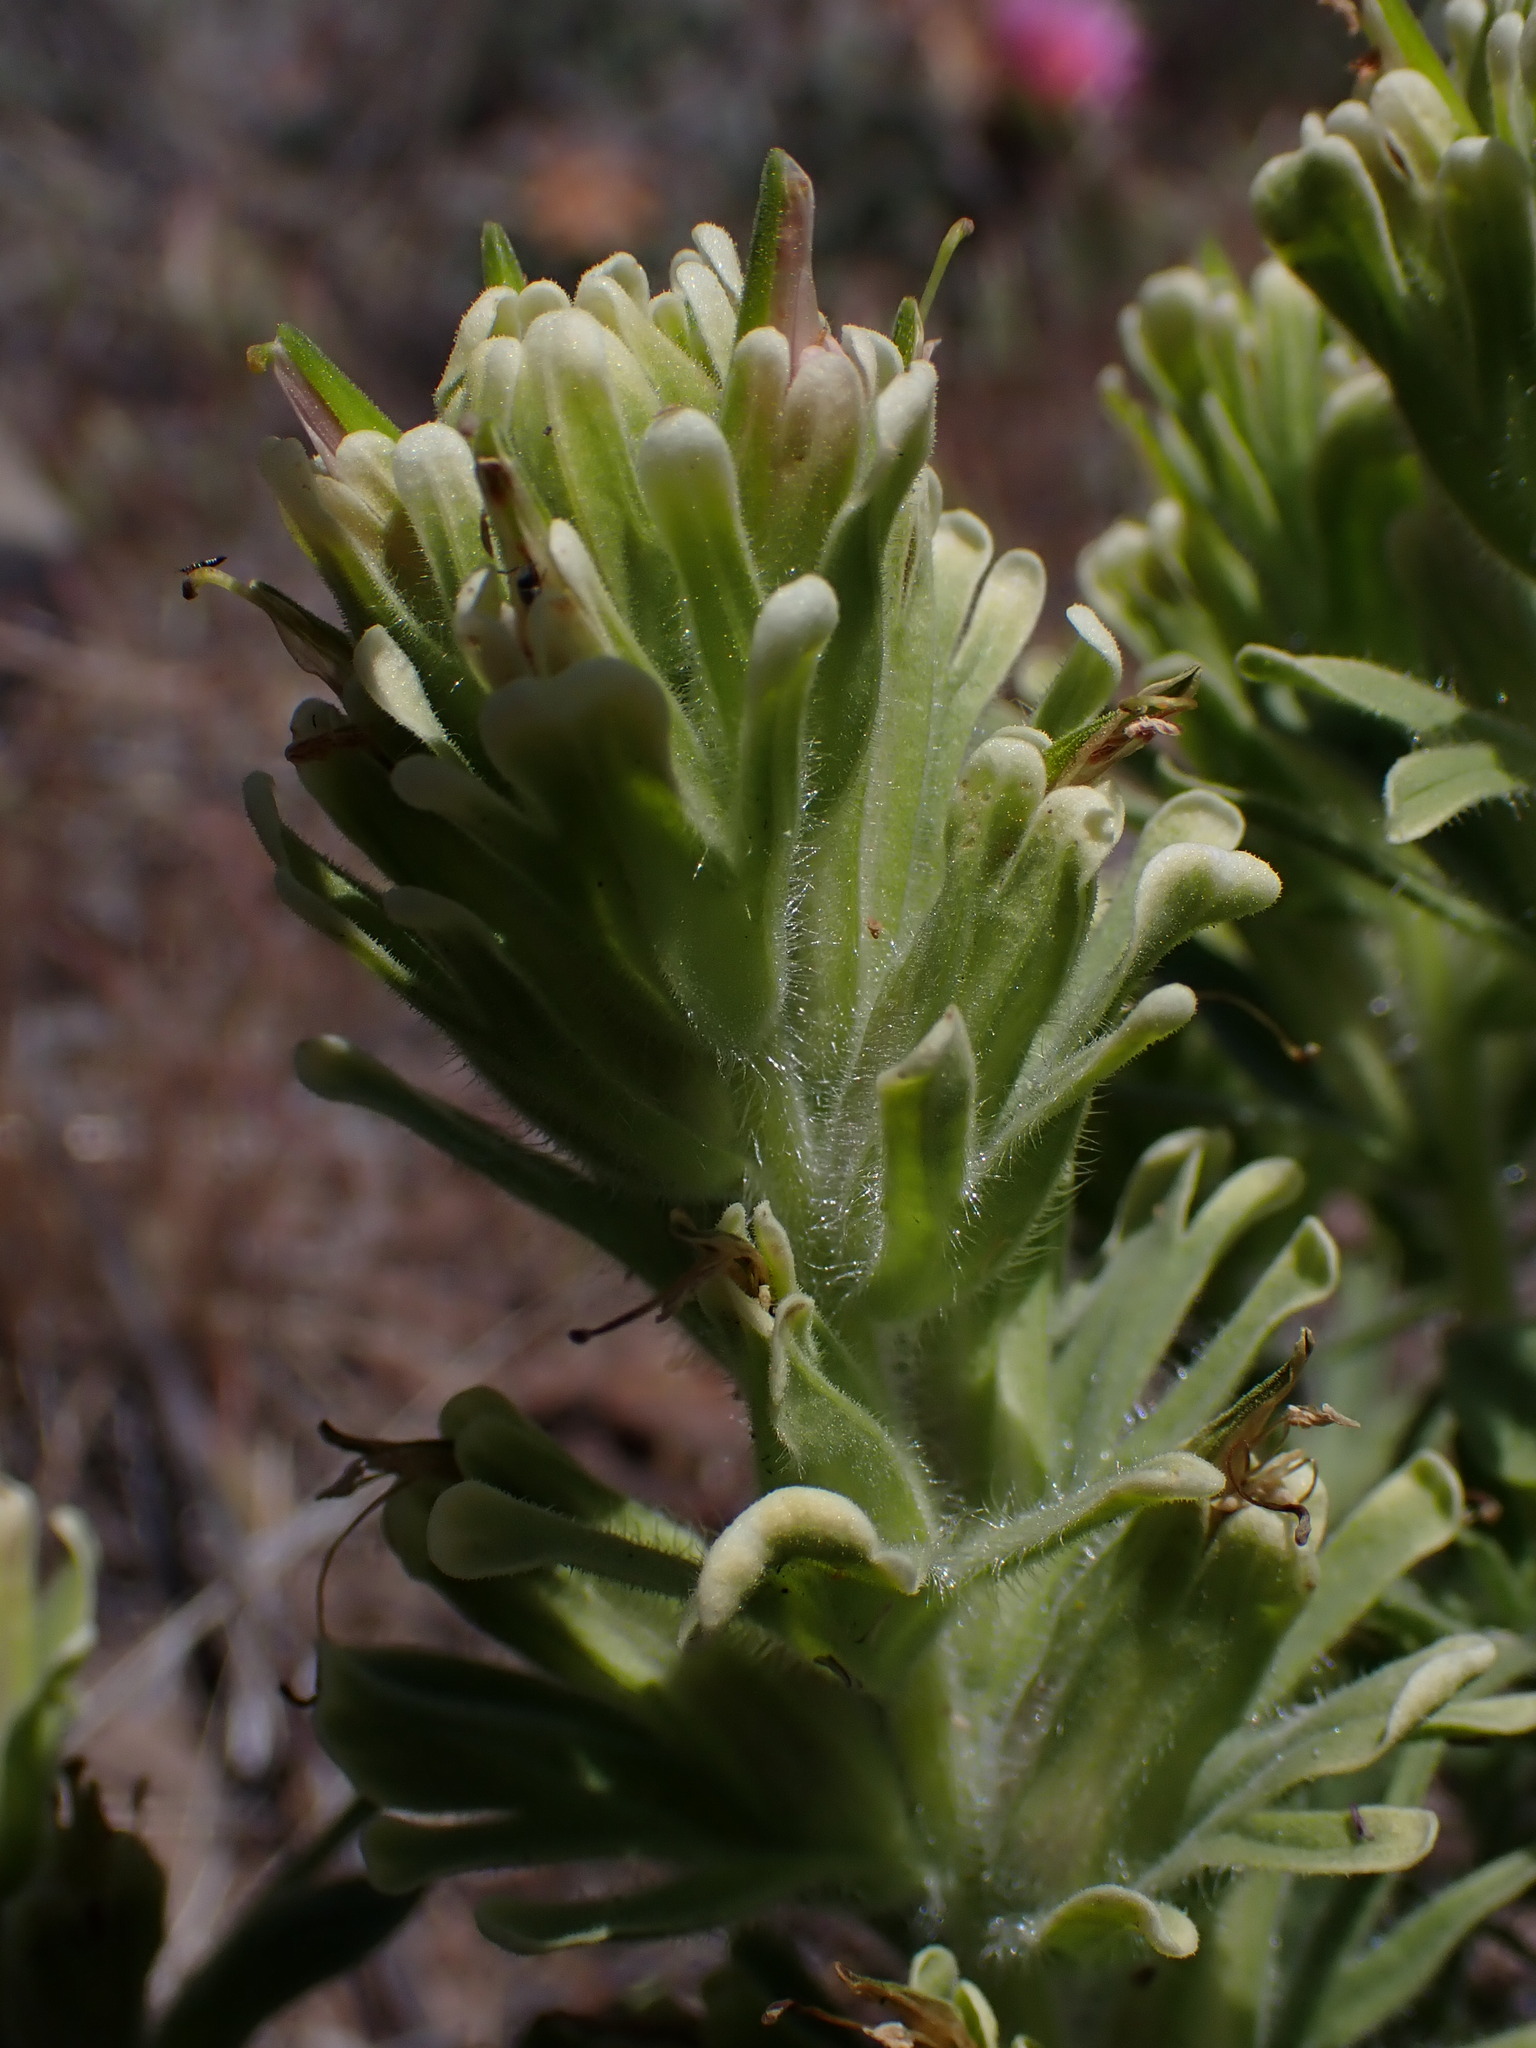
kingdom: Plantae
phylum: Tracheophyta
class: Magnoliopsida
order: Lamiales
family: Orobanchaceae
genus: Castilleja
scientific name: Castilleja xanthotricha
